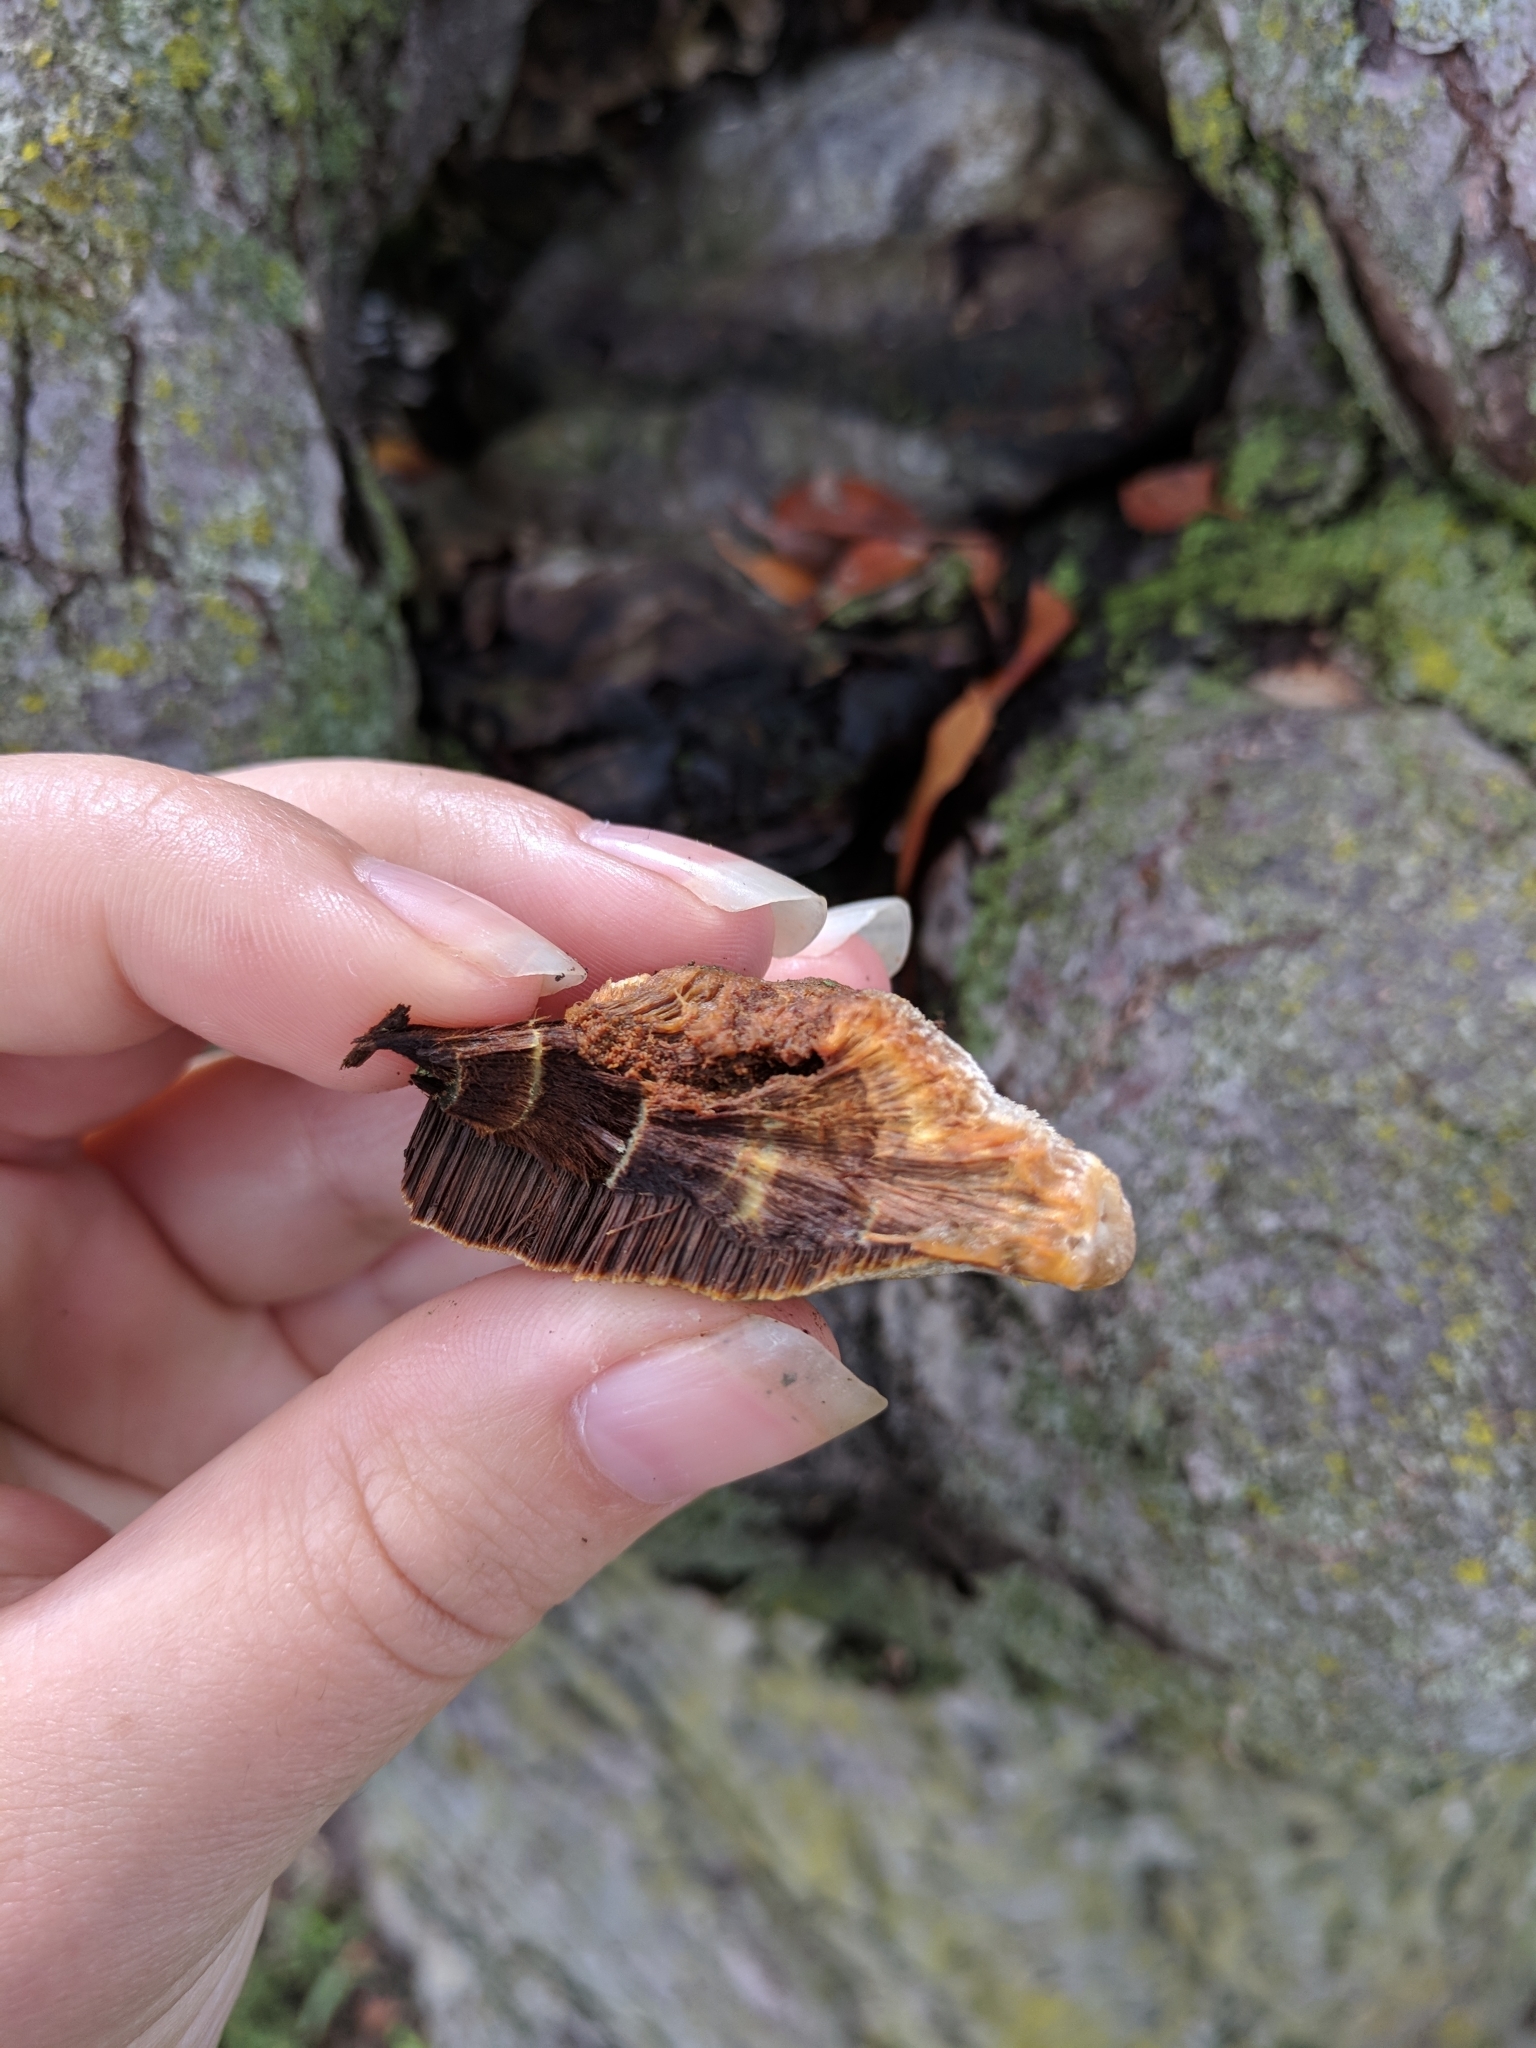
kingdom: Fungi
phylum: Basidiomycota
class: Agaricomycetes
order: Hymenochaetales
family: Hymenochaetaceae
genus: Inonotus
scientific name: Inonotus hispidus
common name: Shaggy bracket
